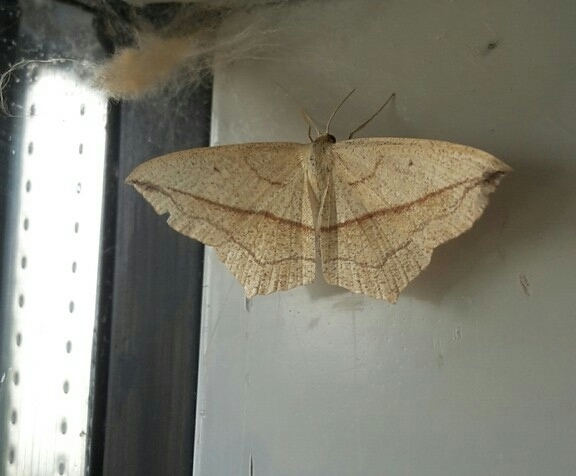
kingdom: Animalia
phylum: Arthropoda
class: Insecta
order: Lepidoptera
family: Geometridae
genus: Timandra
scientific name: Timandra comae
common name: Blood-vein
